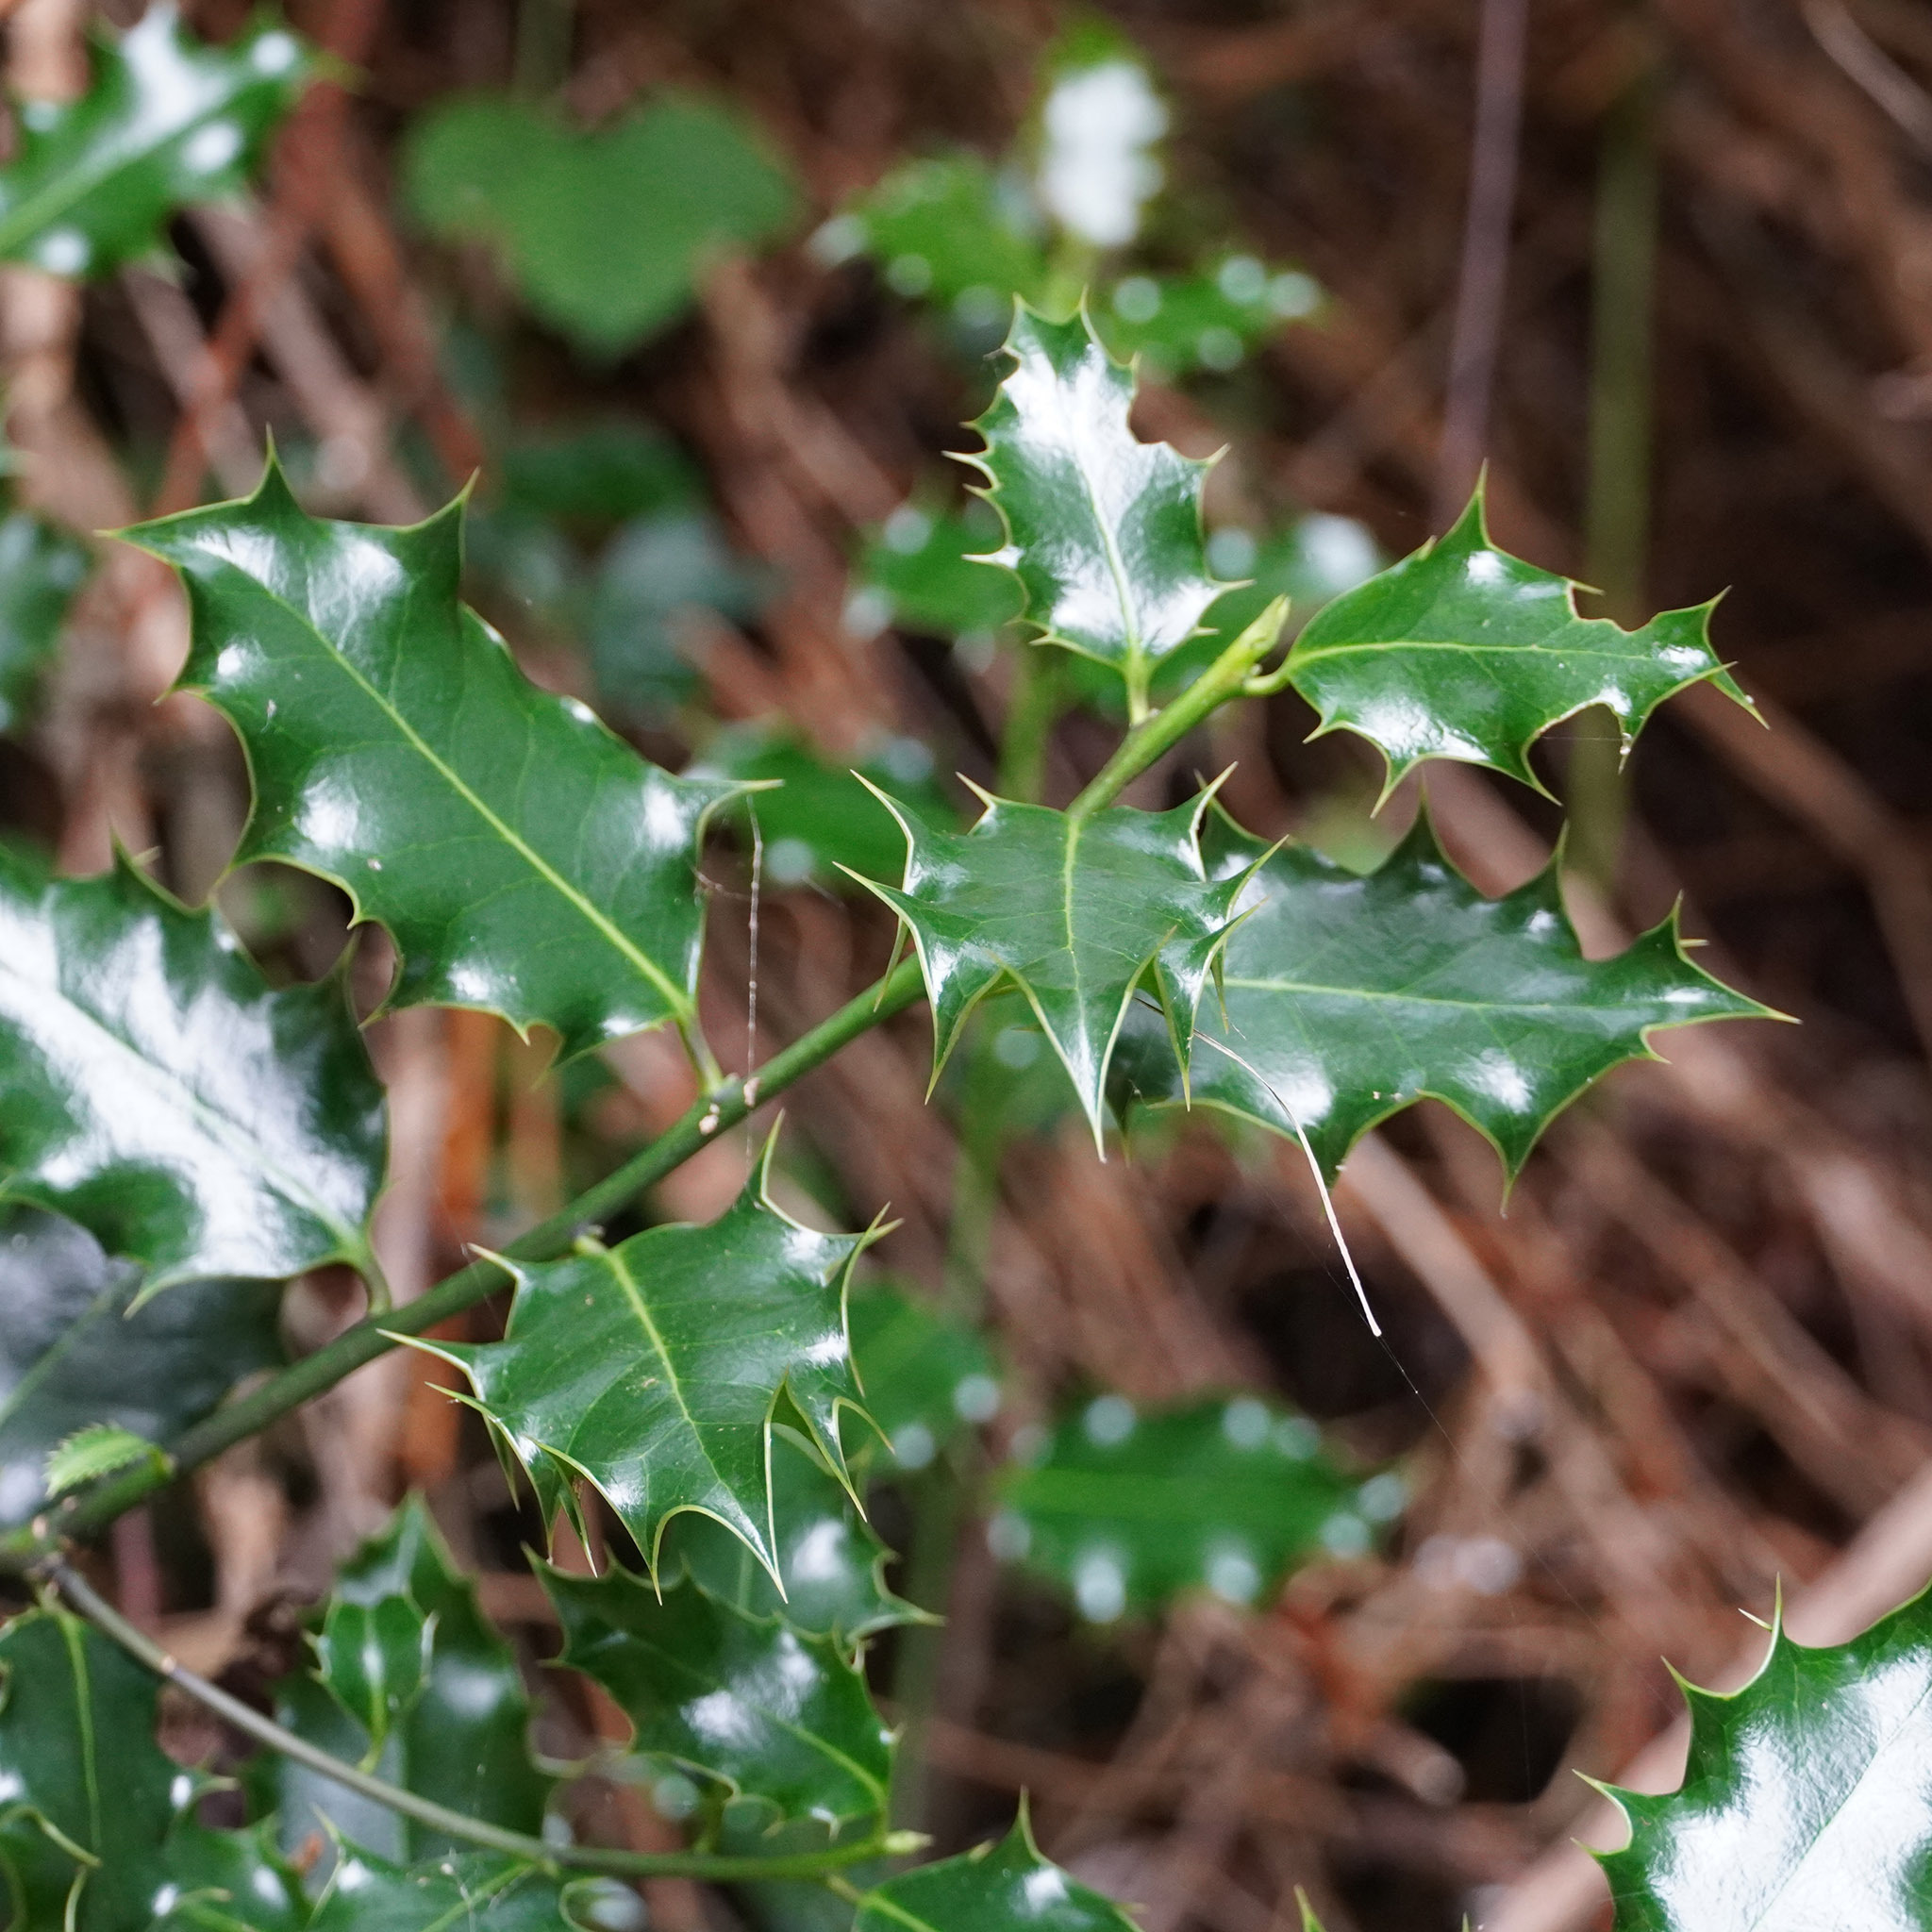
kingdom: Plantae
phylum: Tracheophyta
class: Magnoliopsida
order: Aquifoliales
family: Aquifoliaceae
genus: Ilex
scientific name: Ilex aquifolium
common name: English holly
